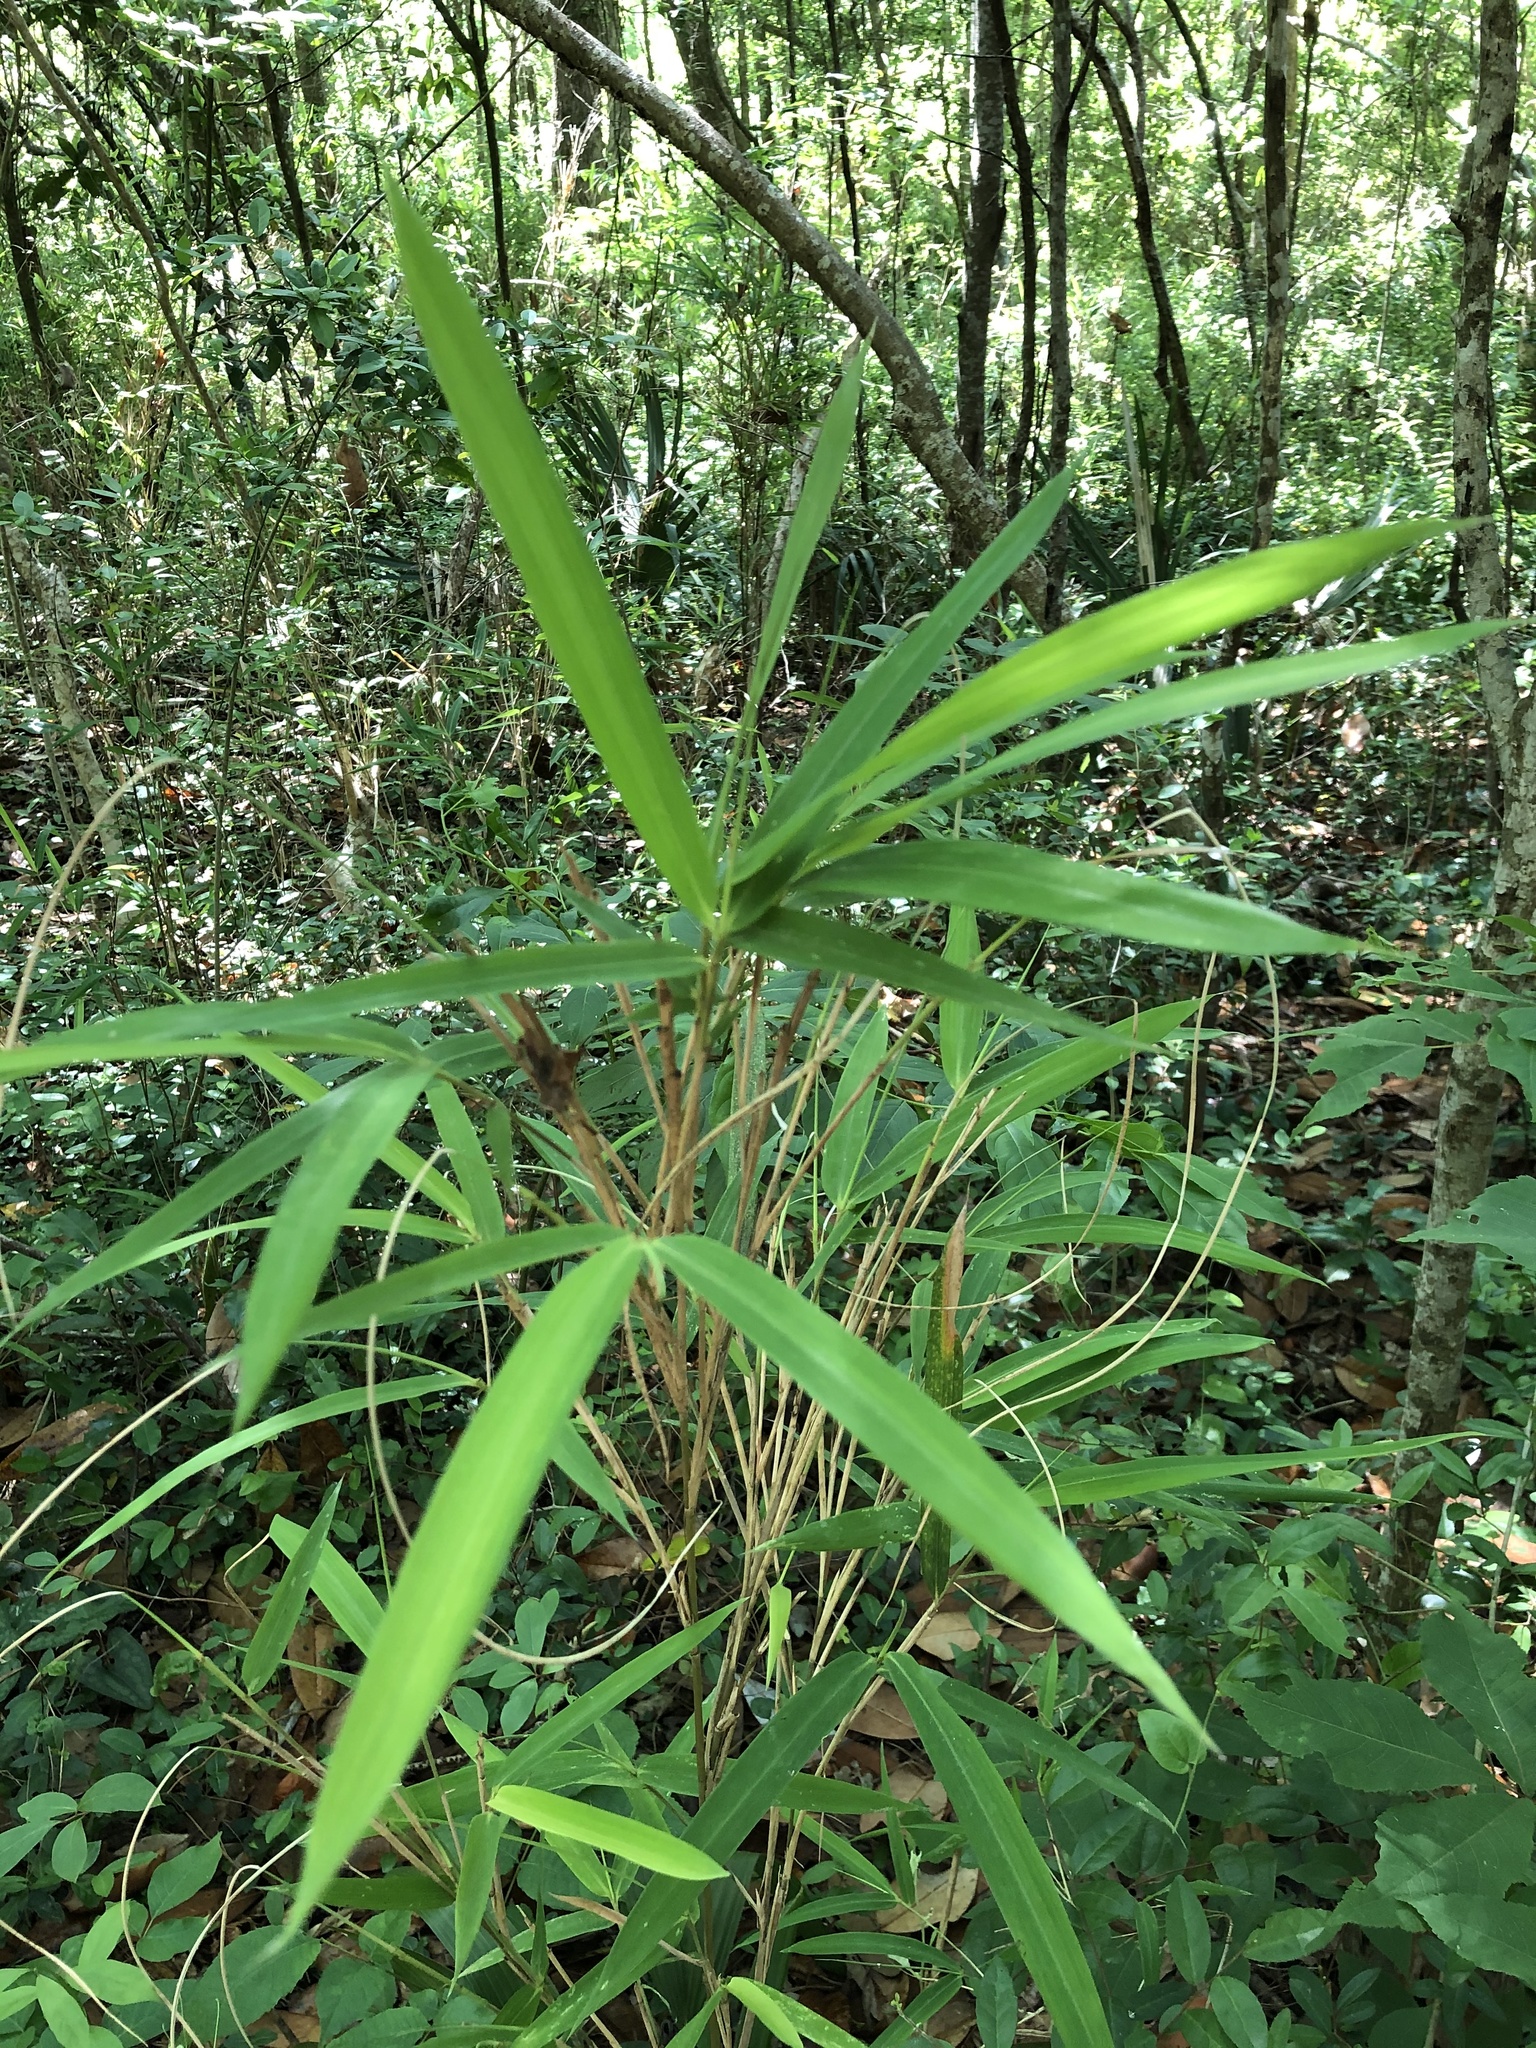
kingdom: Plantae
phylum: Tracheophyta
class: Liliopsida
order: Poales
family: Poaceae
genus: Arundinaria
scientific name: Arundinaria tecta
